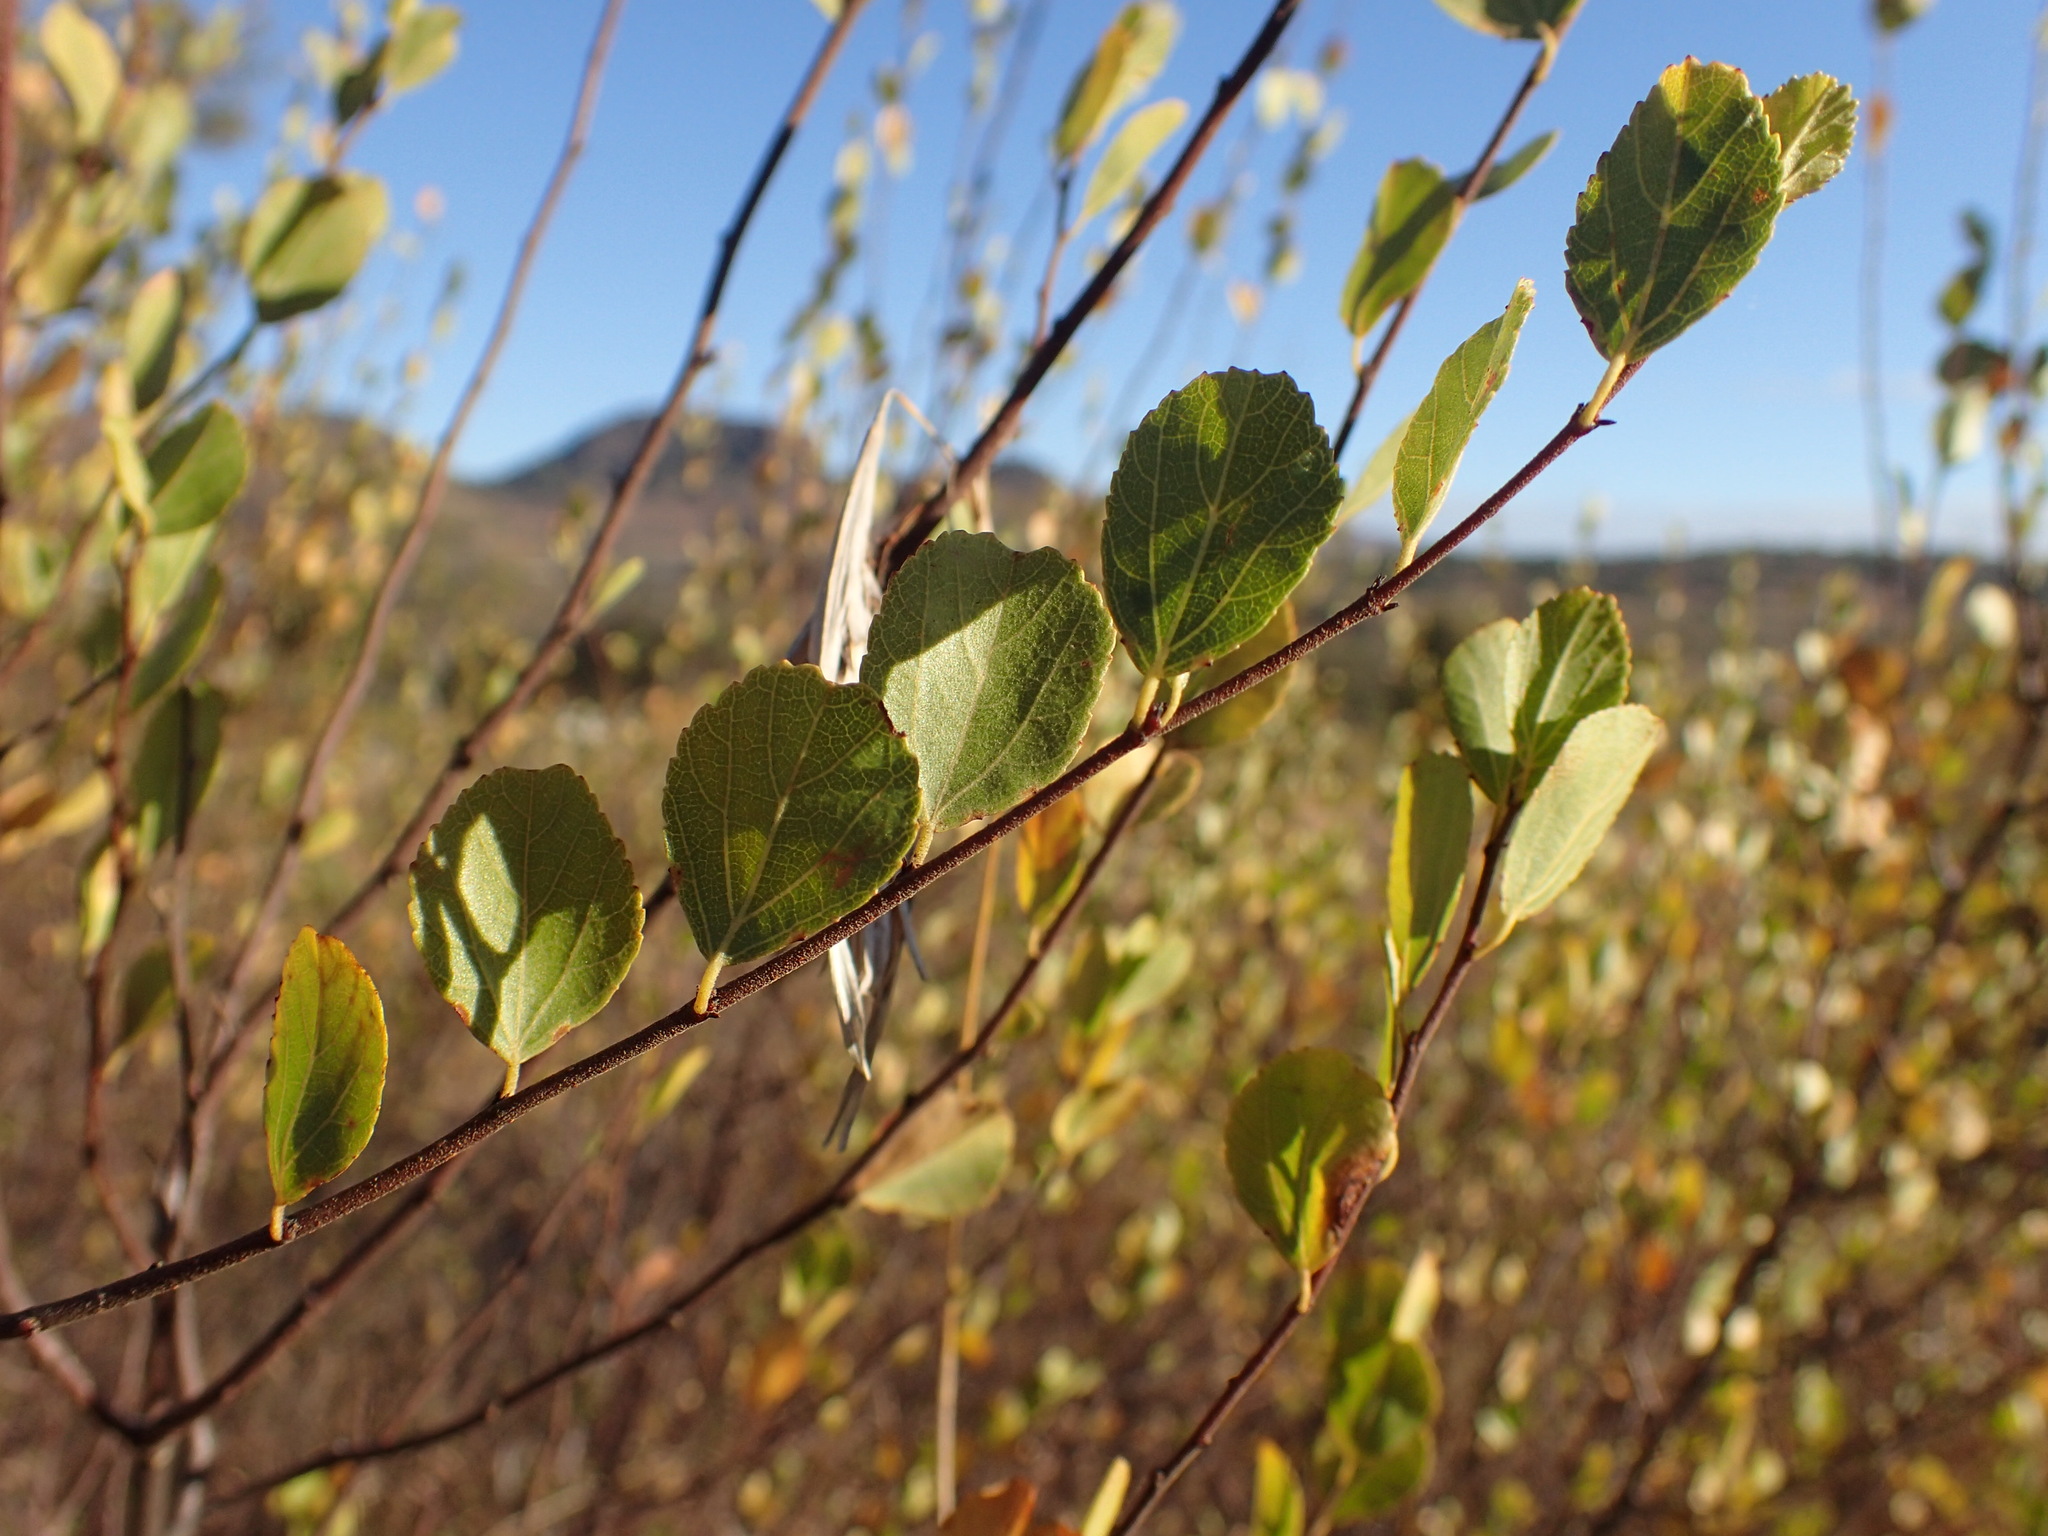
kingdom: Plantae
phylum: Tracheophyta
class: Magnoliopsida
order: Malvales
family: Malvaceae
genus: Grewia
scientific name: Grewia vernicosa
